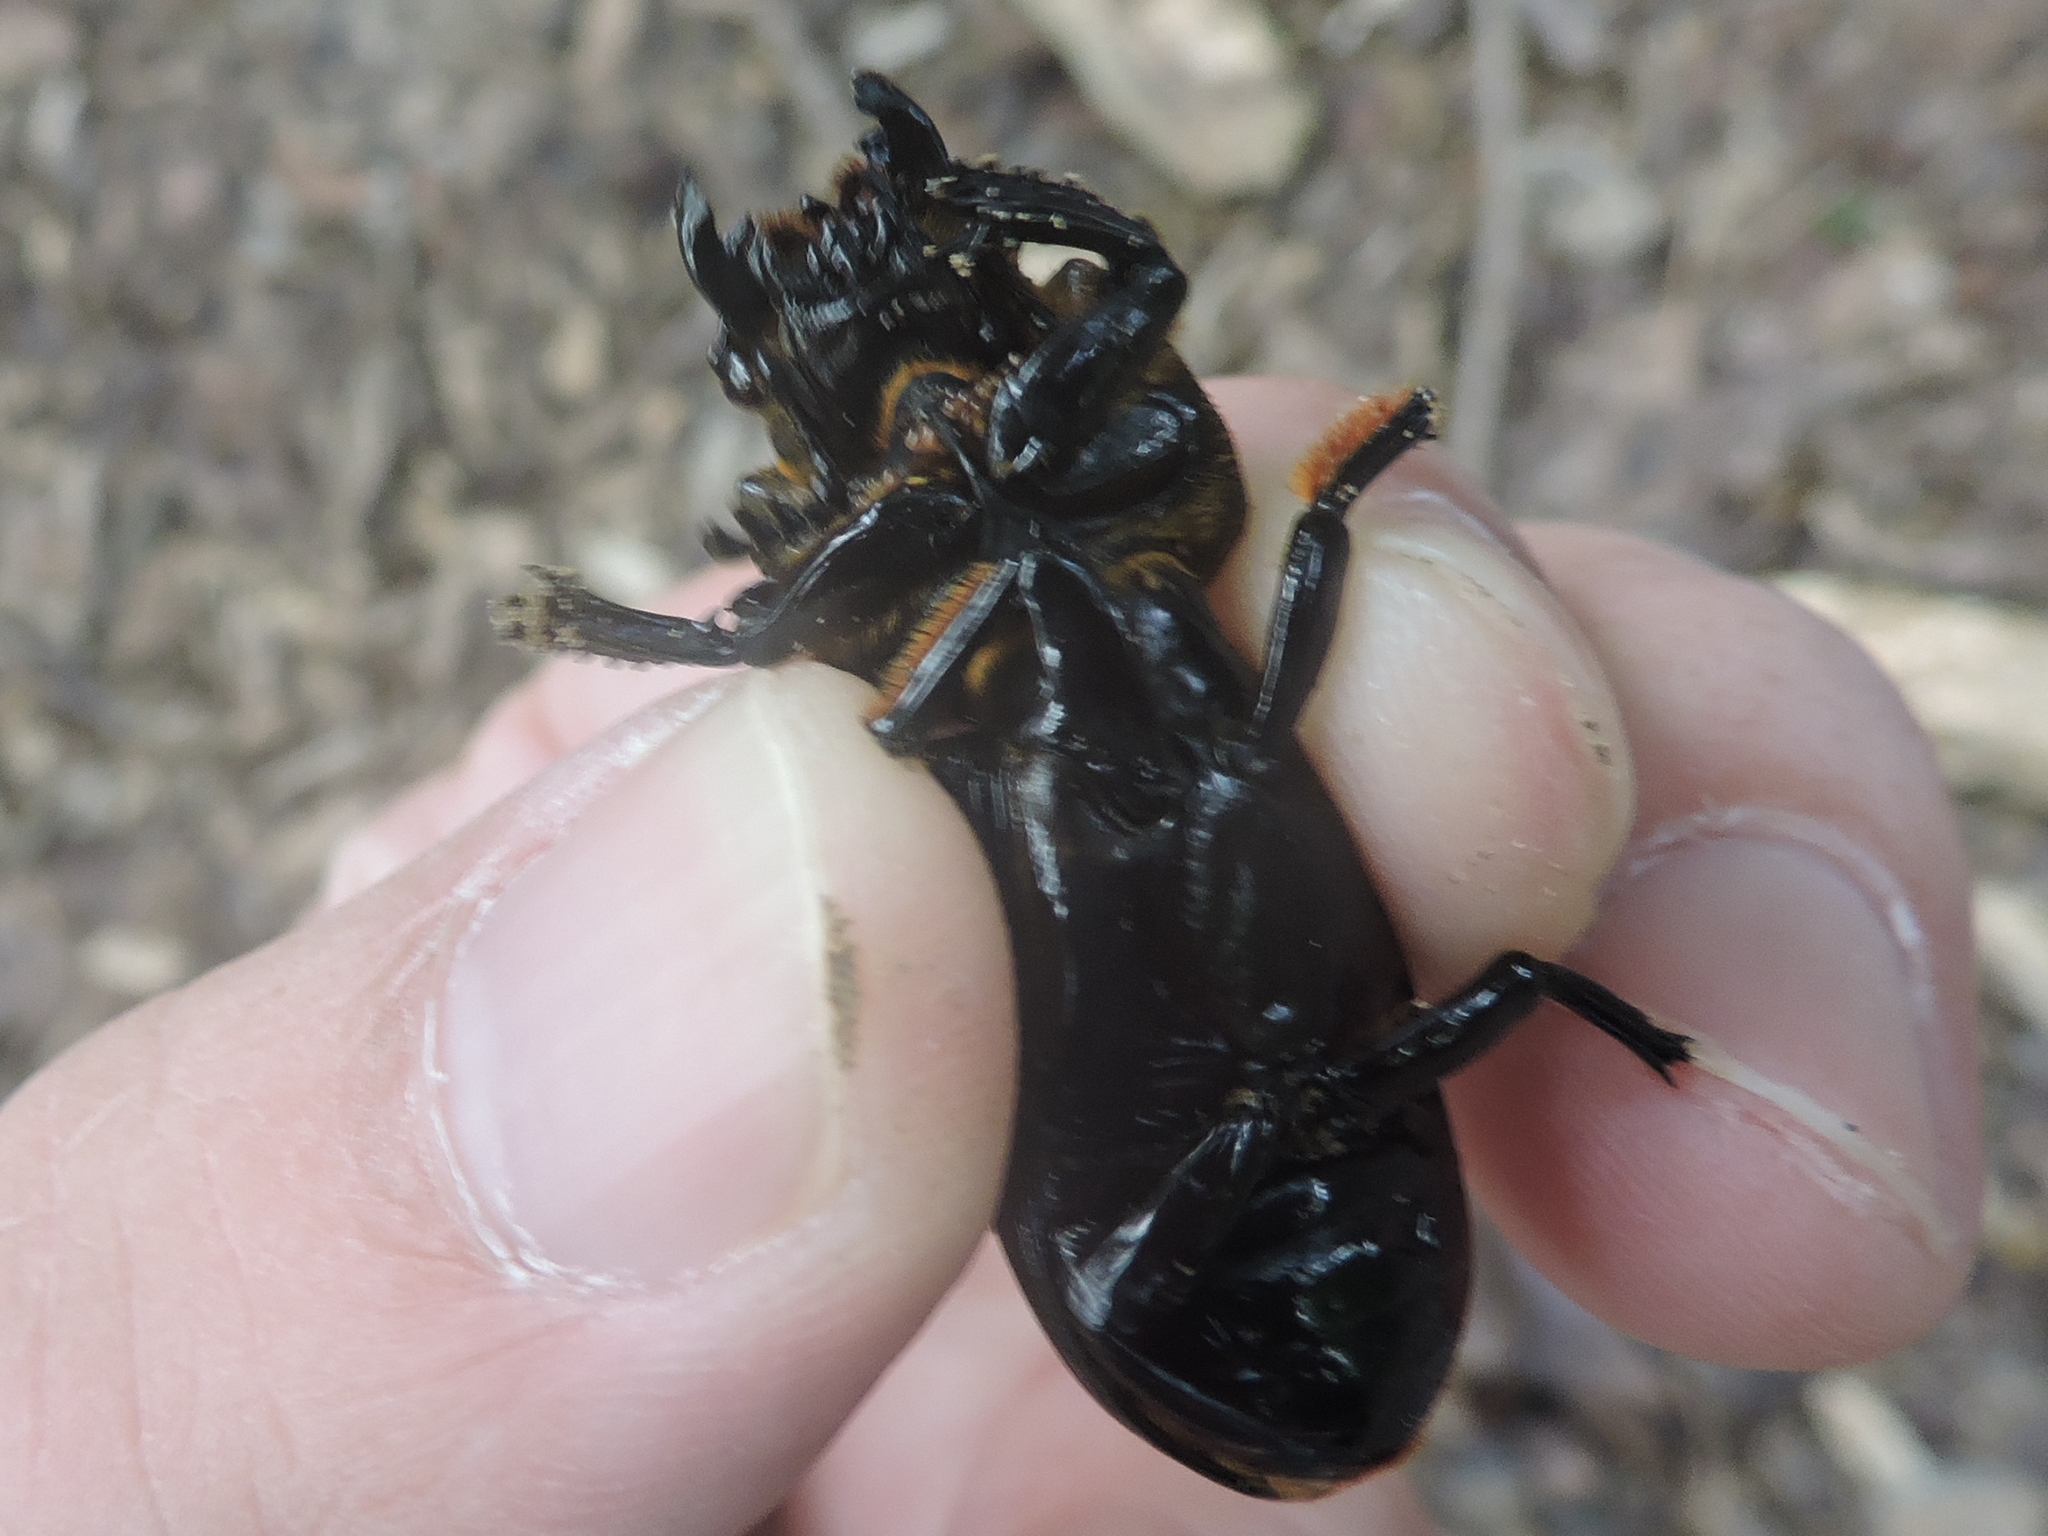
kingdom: Animalia
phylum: Arthropoda
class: Insecta
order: Coleoptera
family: Passalidae
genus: Odontotaenius
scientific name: Odontotaenius disjunctus
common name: Patent leather beetle
